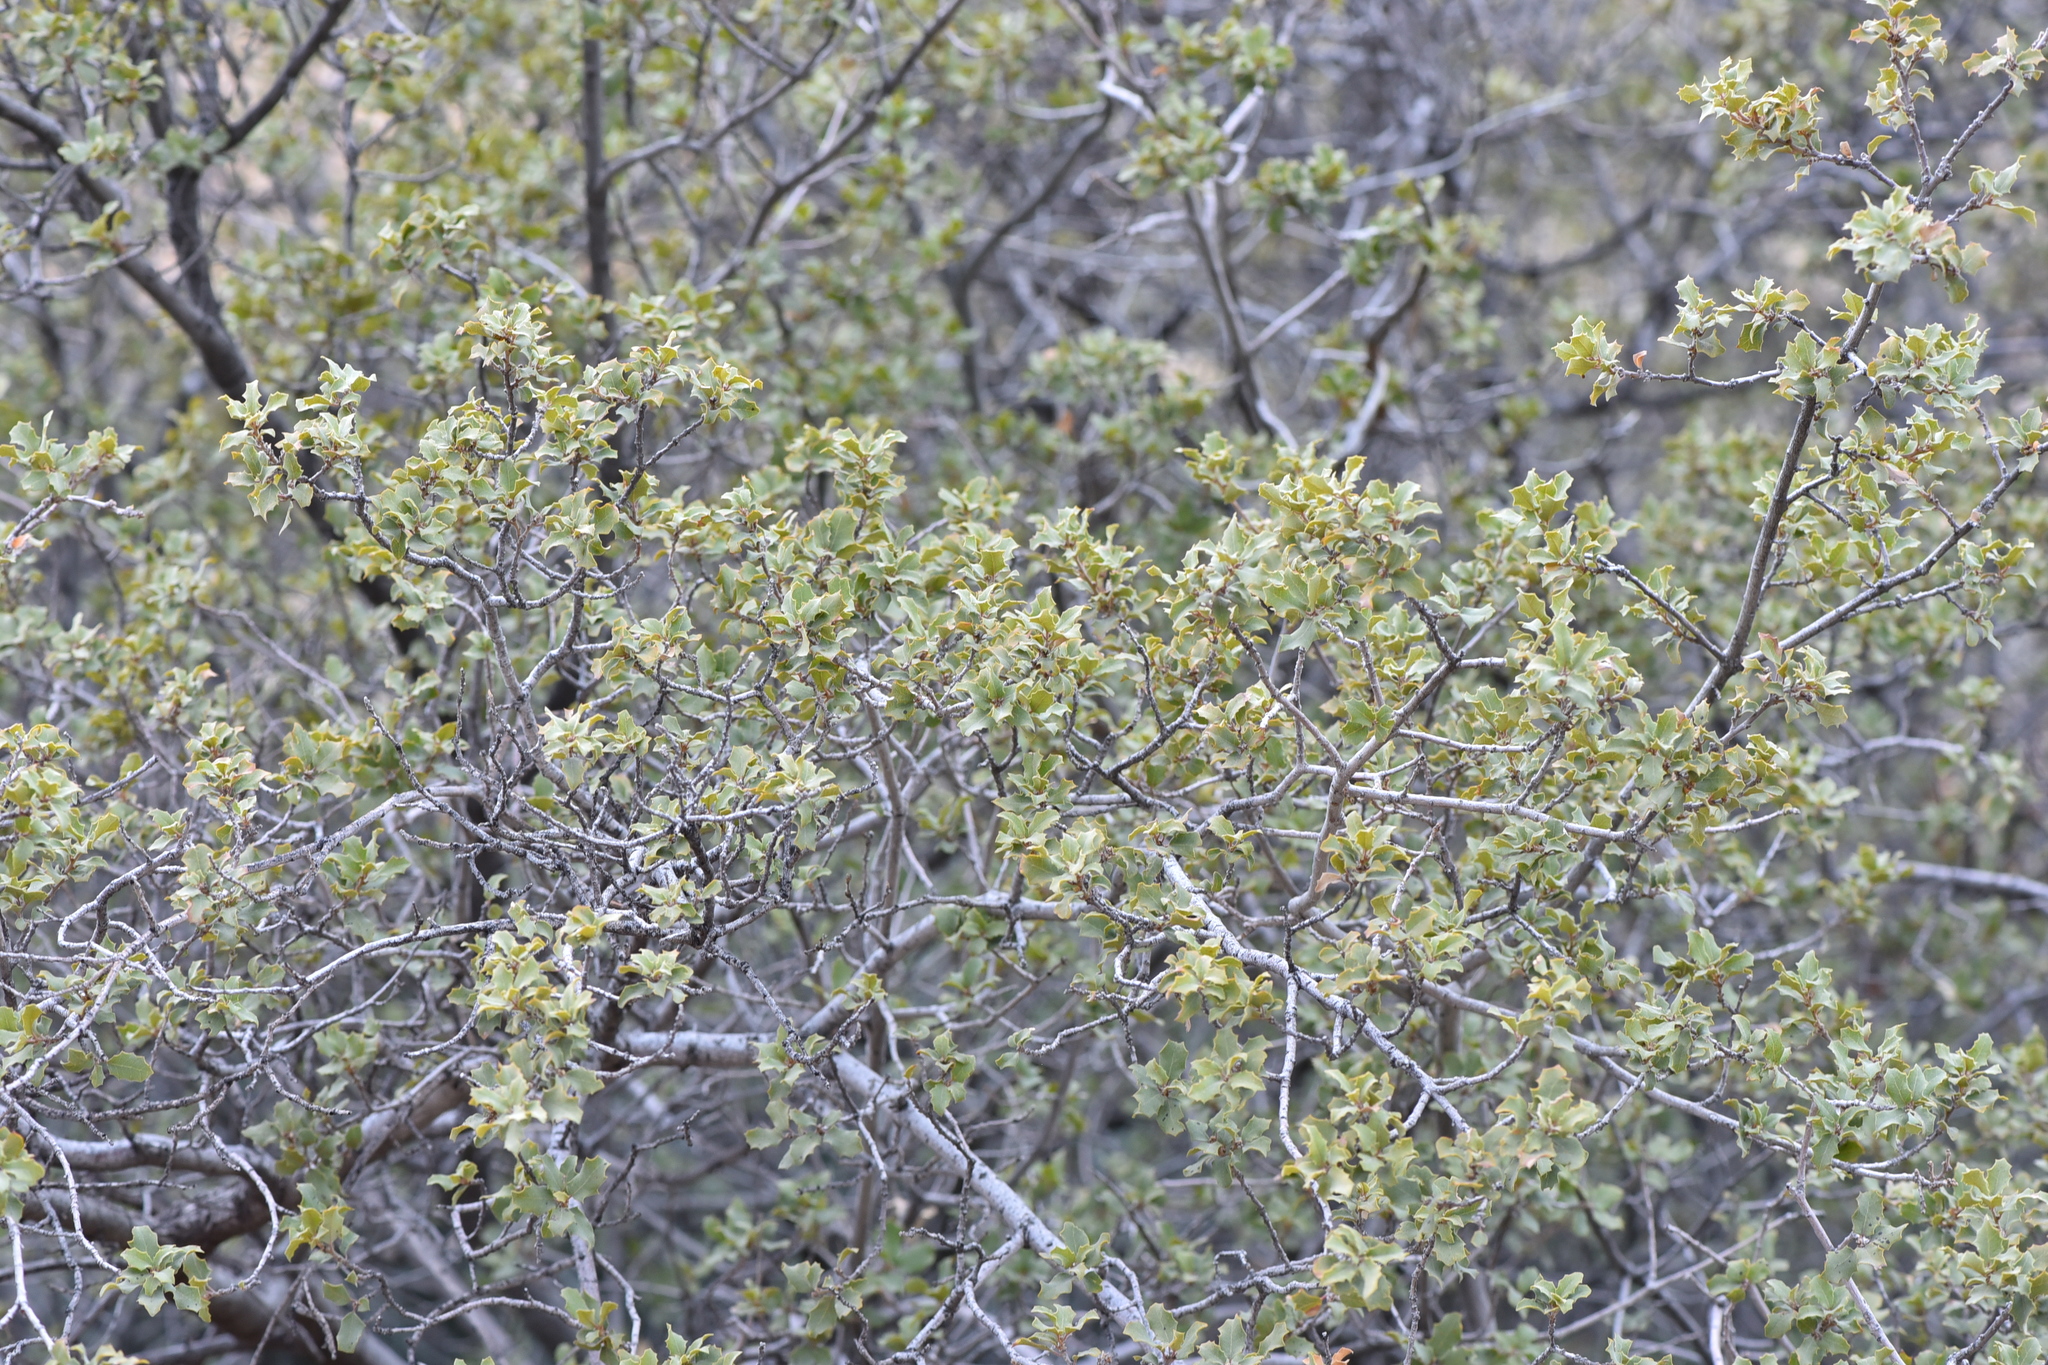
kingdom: Plantae
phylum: Tracheophyta
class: Magnoliopsida
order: Fagales
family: Fagaceae
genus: Quercus
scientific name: Quercus turbinella
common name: Sonoran scrub oak
